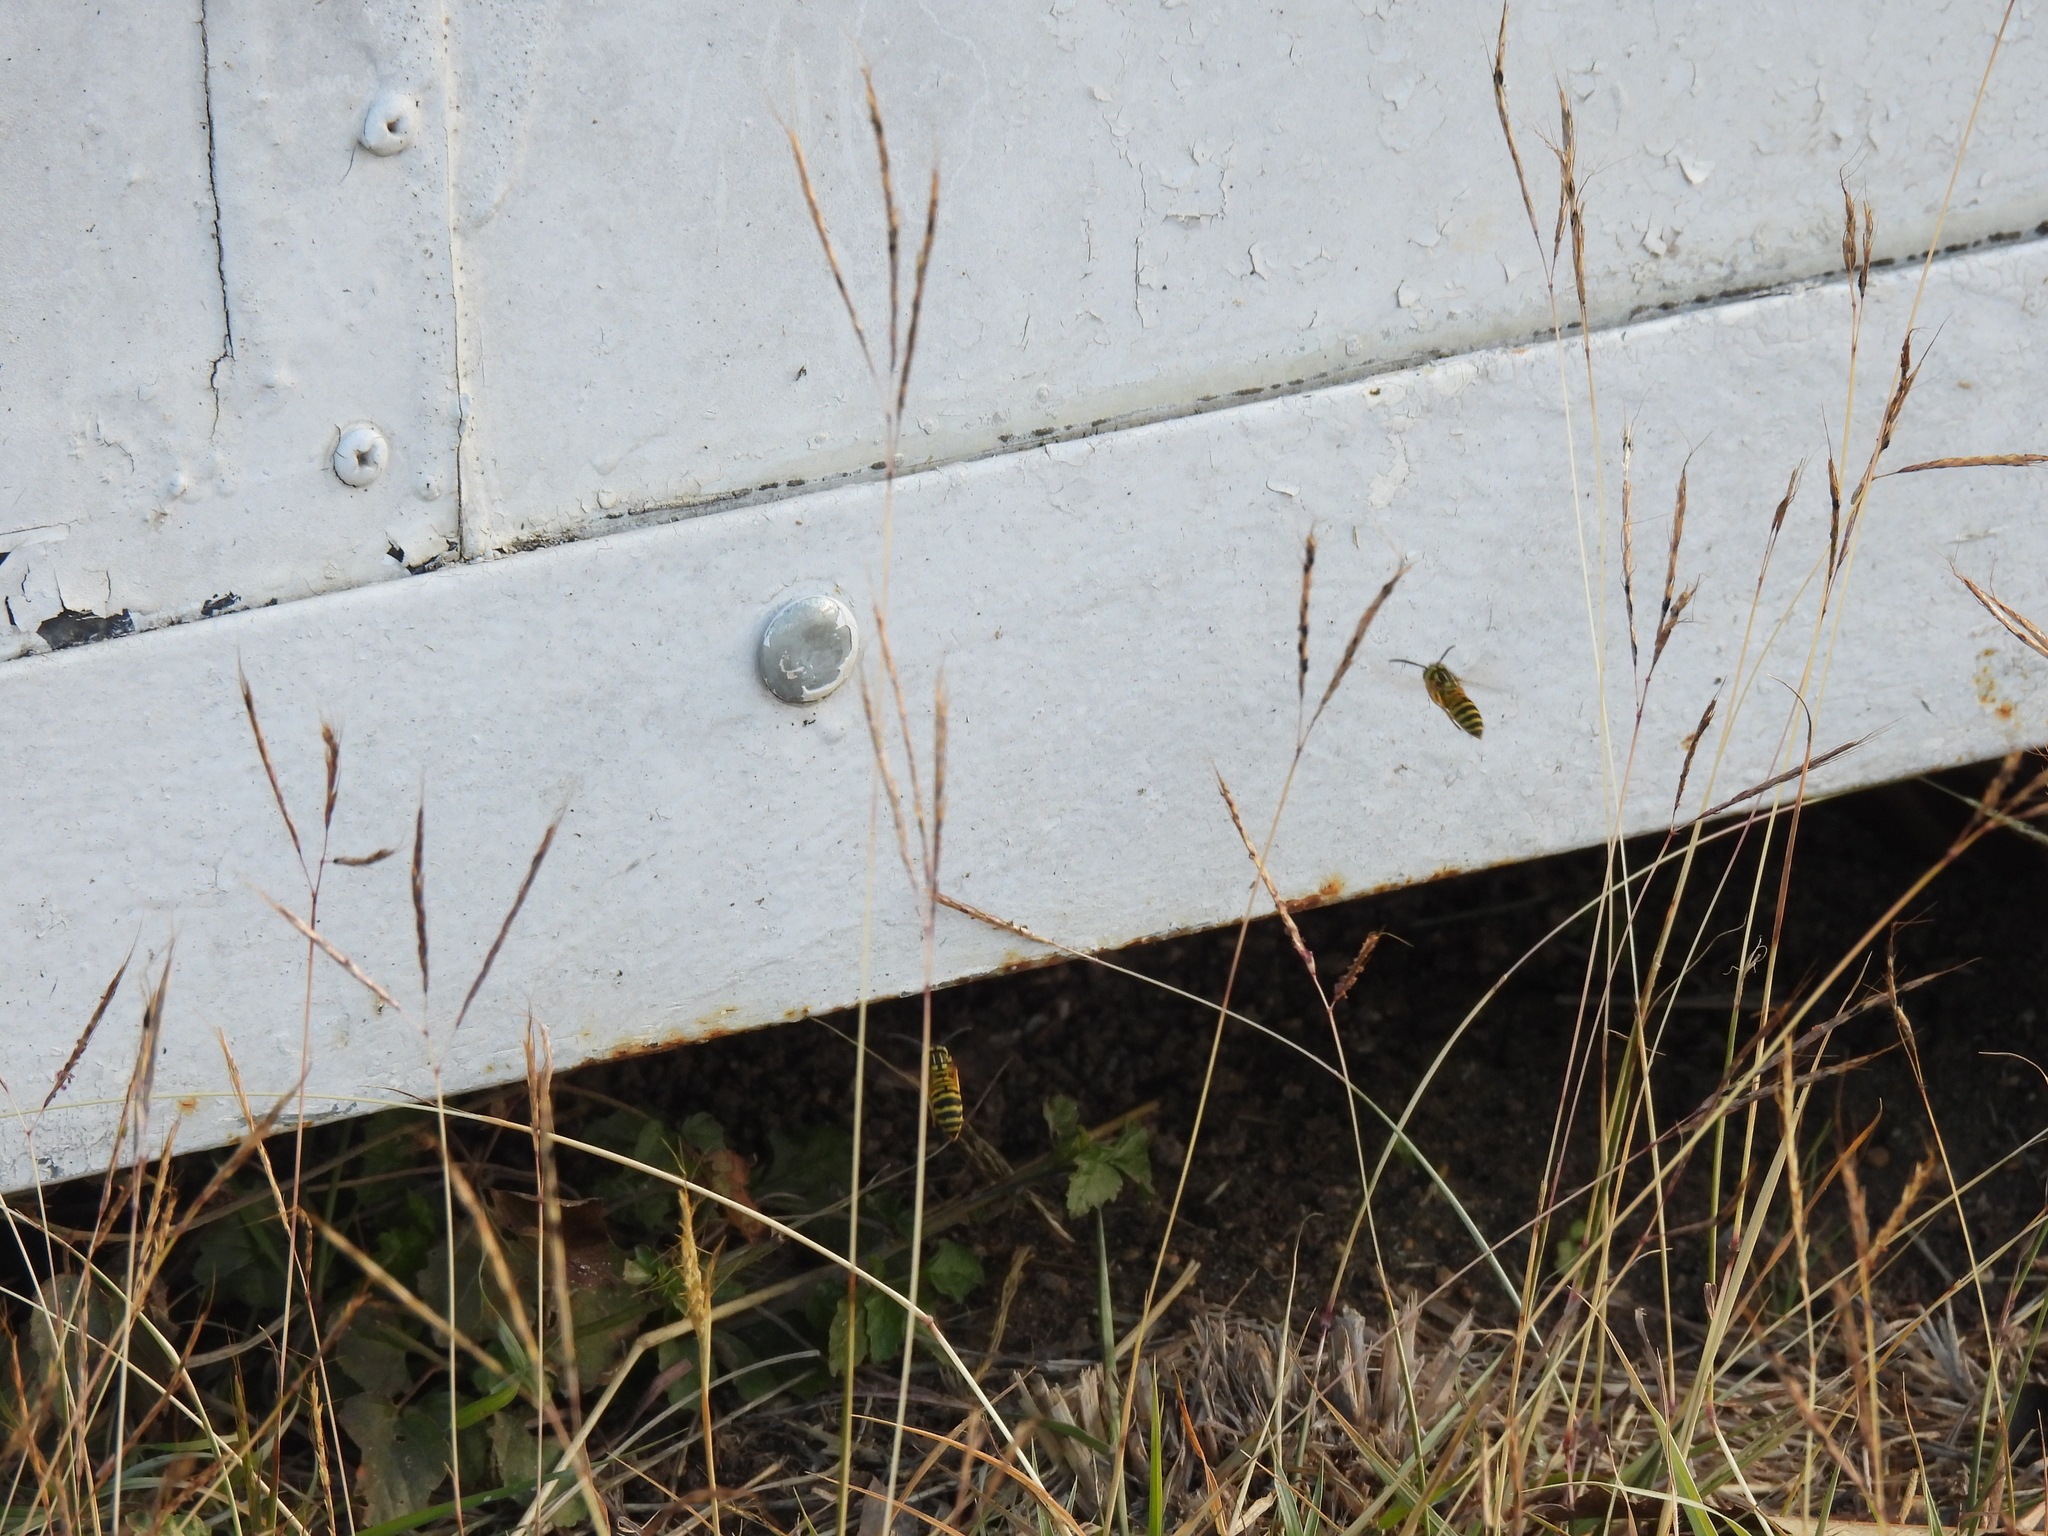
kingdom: Animalia
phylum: Arthropoda
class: Insecta
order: Hymenoptera
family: Vespidae
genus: Vespula
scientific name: Vespula squamosa
